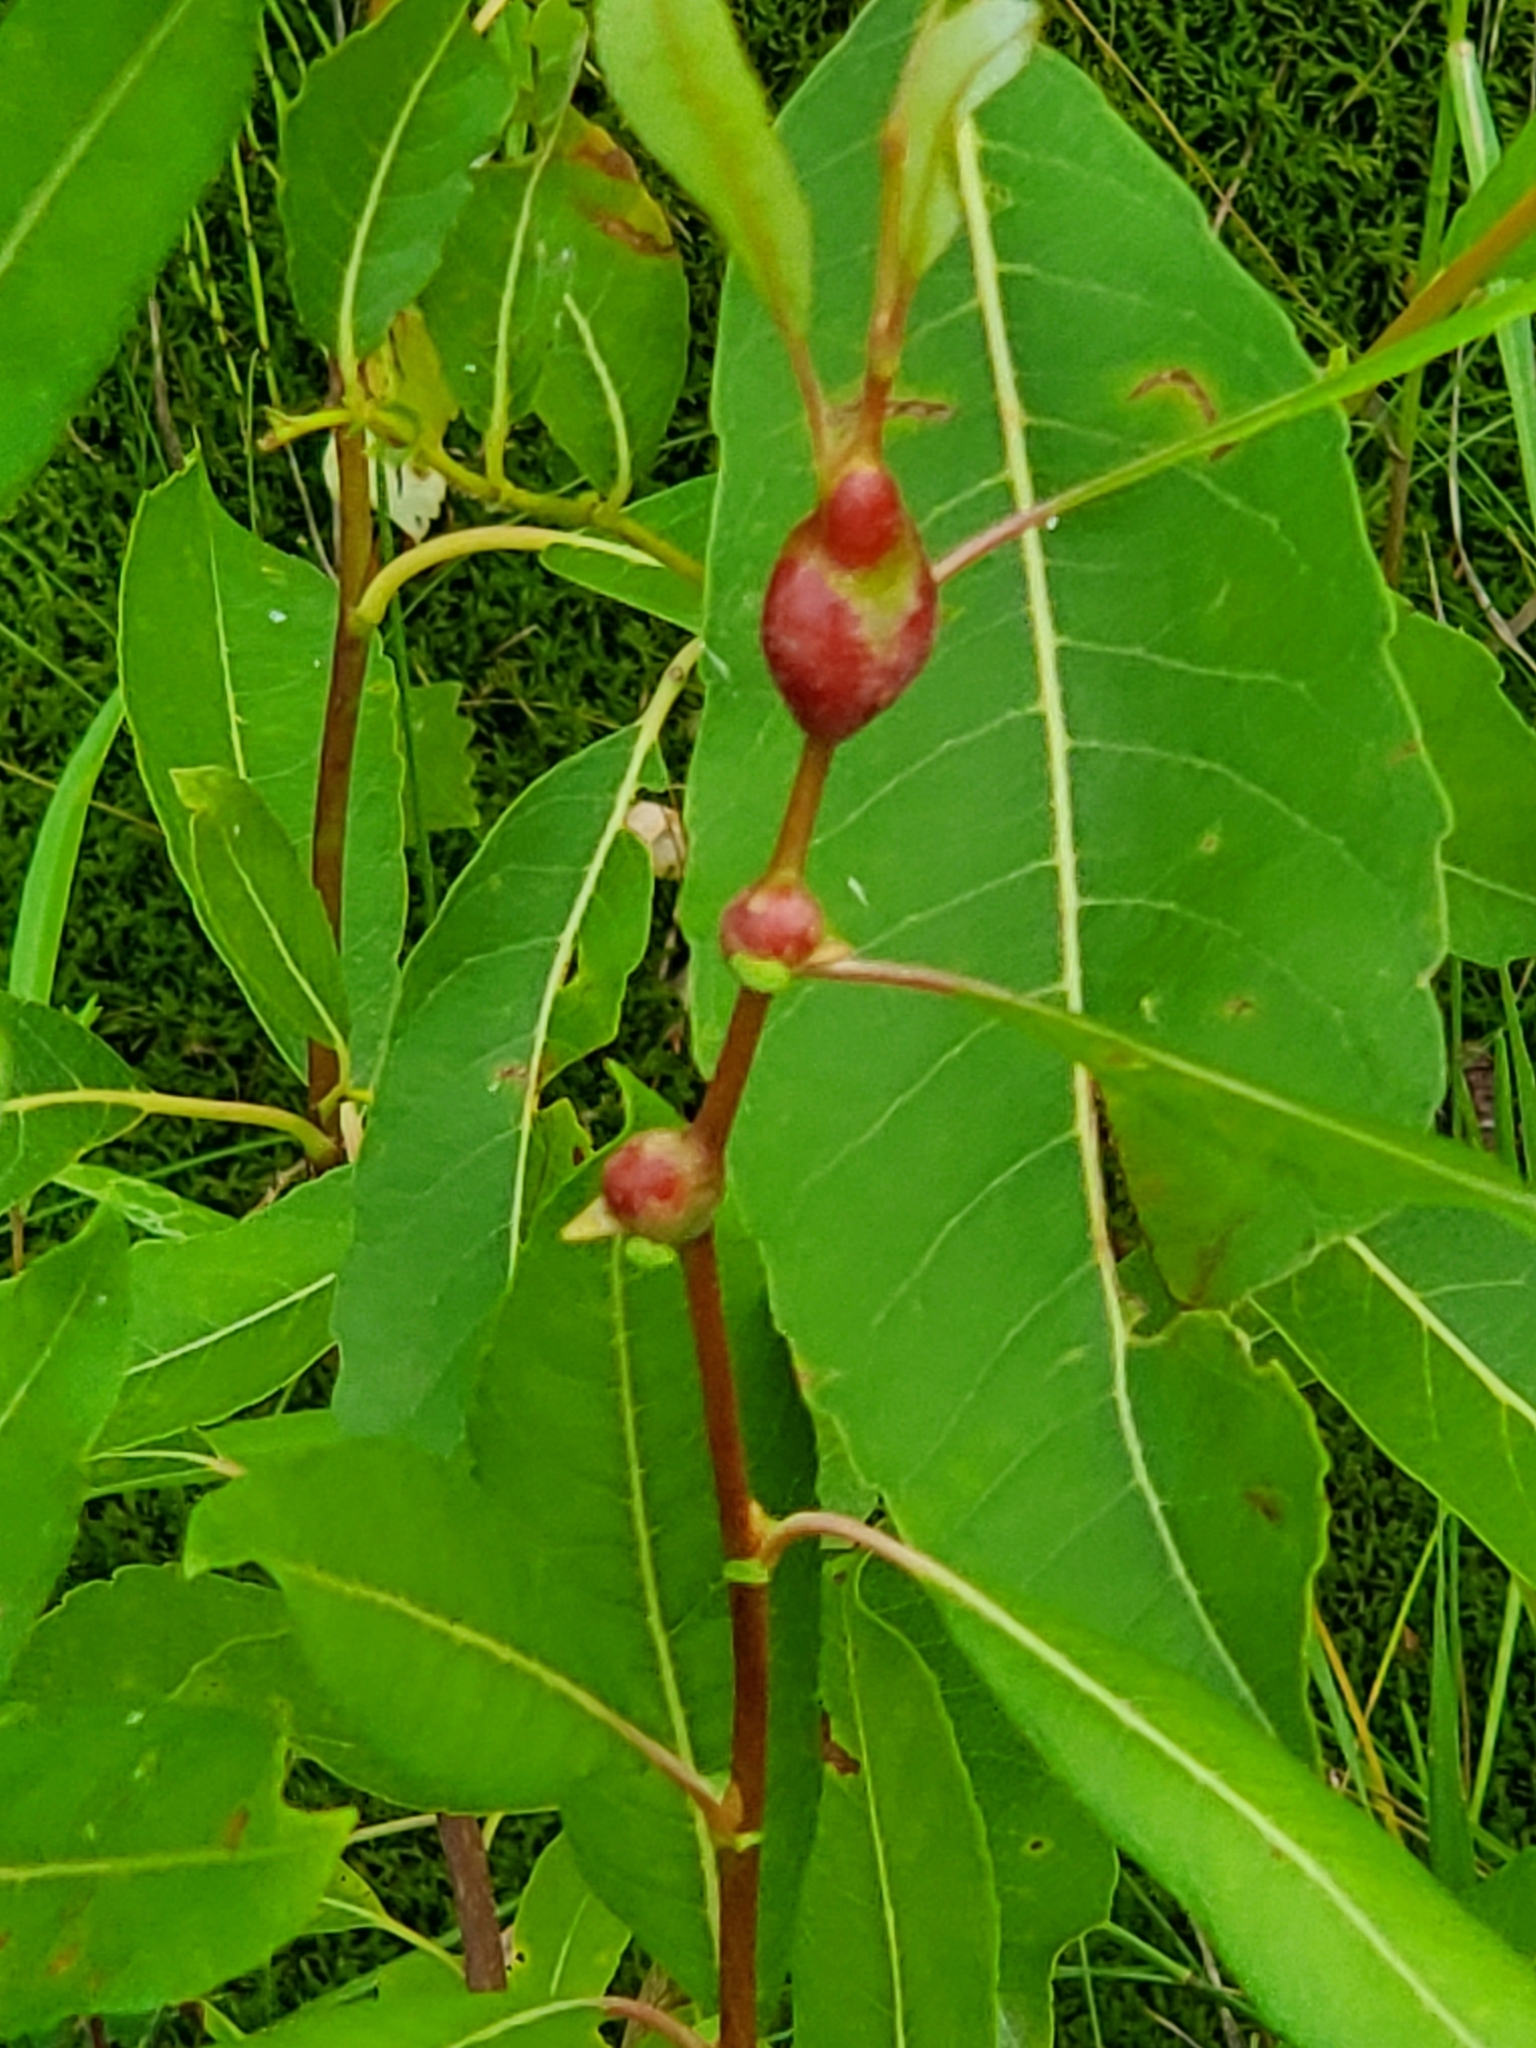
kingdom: Animalia
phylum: Arthropoda
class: Insecta
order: Diptera
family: Cecidomyiidae
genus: Rabdophaga
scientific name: Rabdophaga salicisbatatas
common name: Potato gall midge
